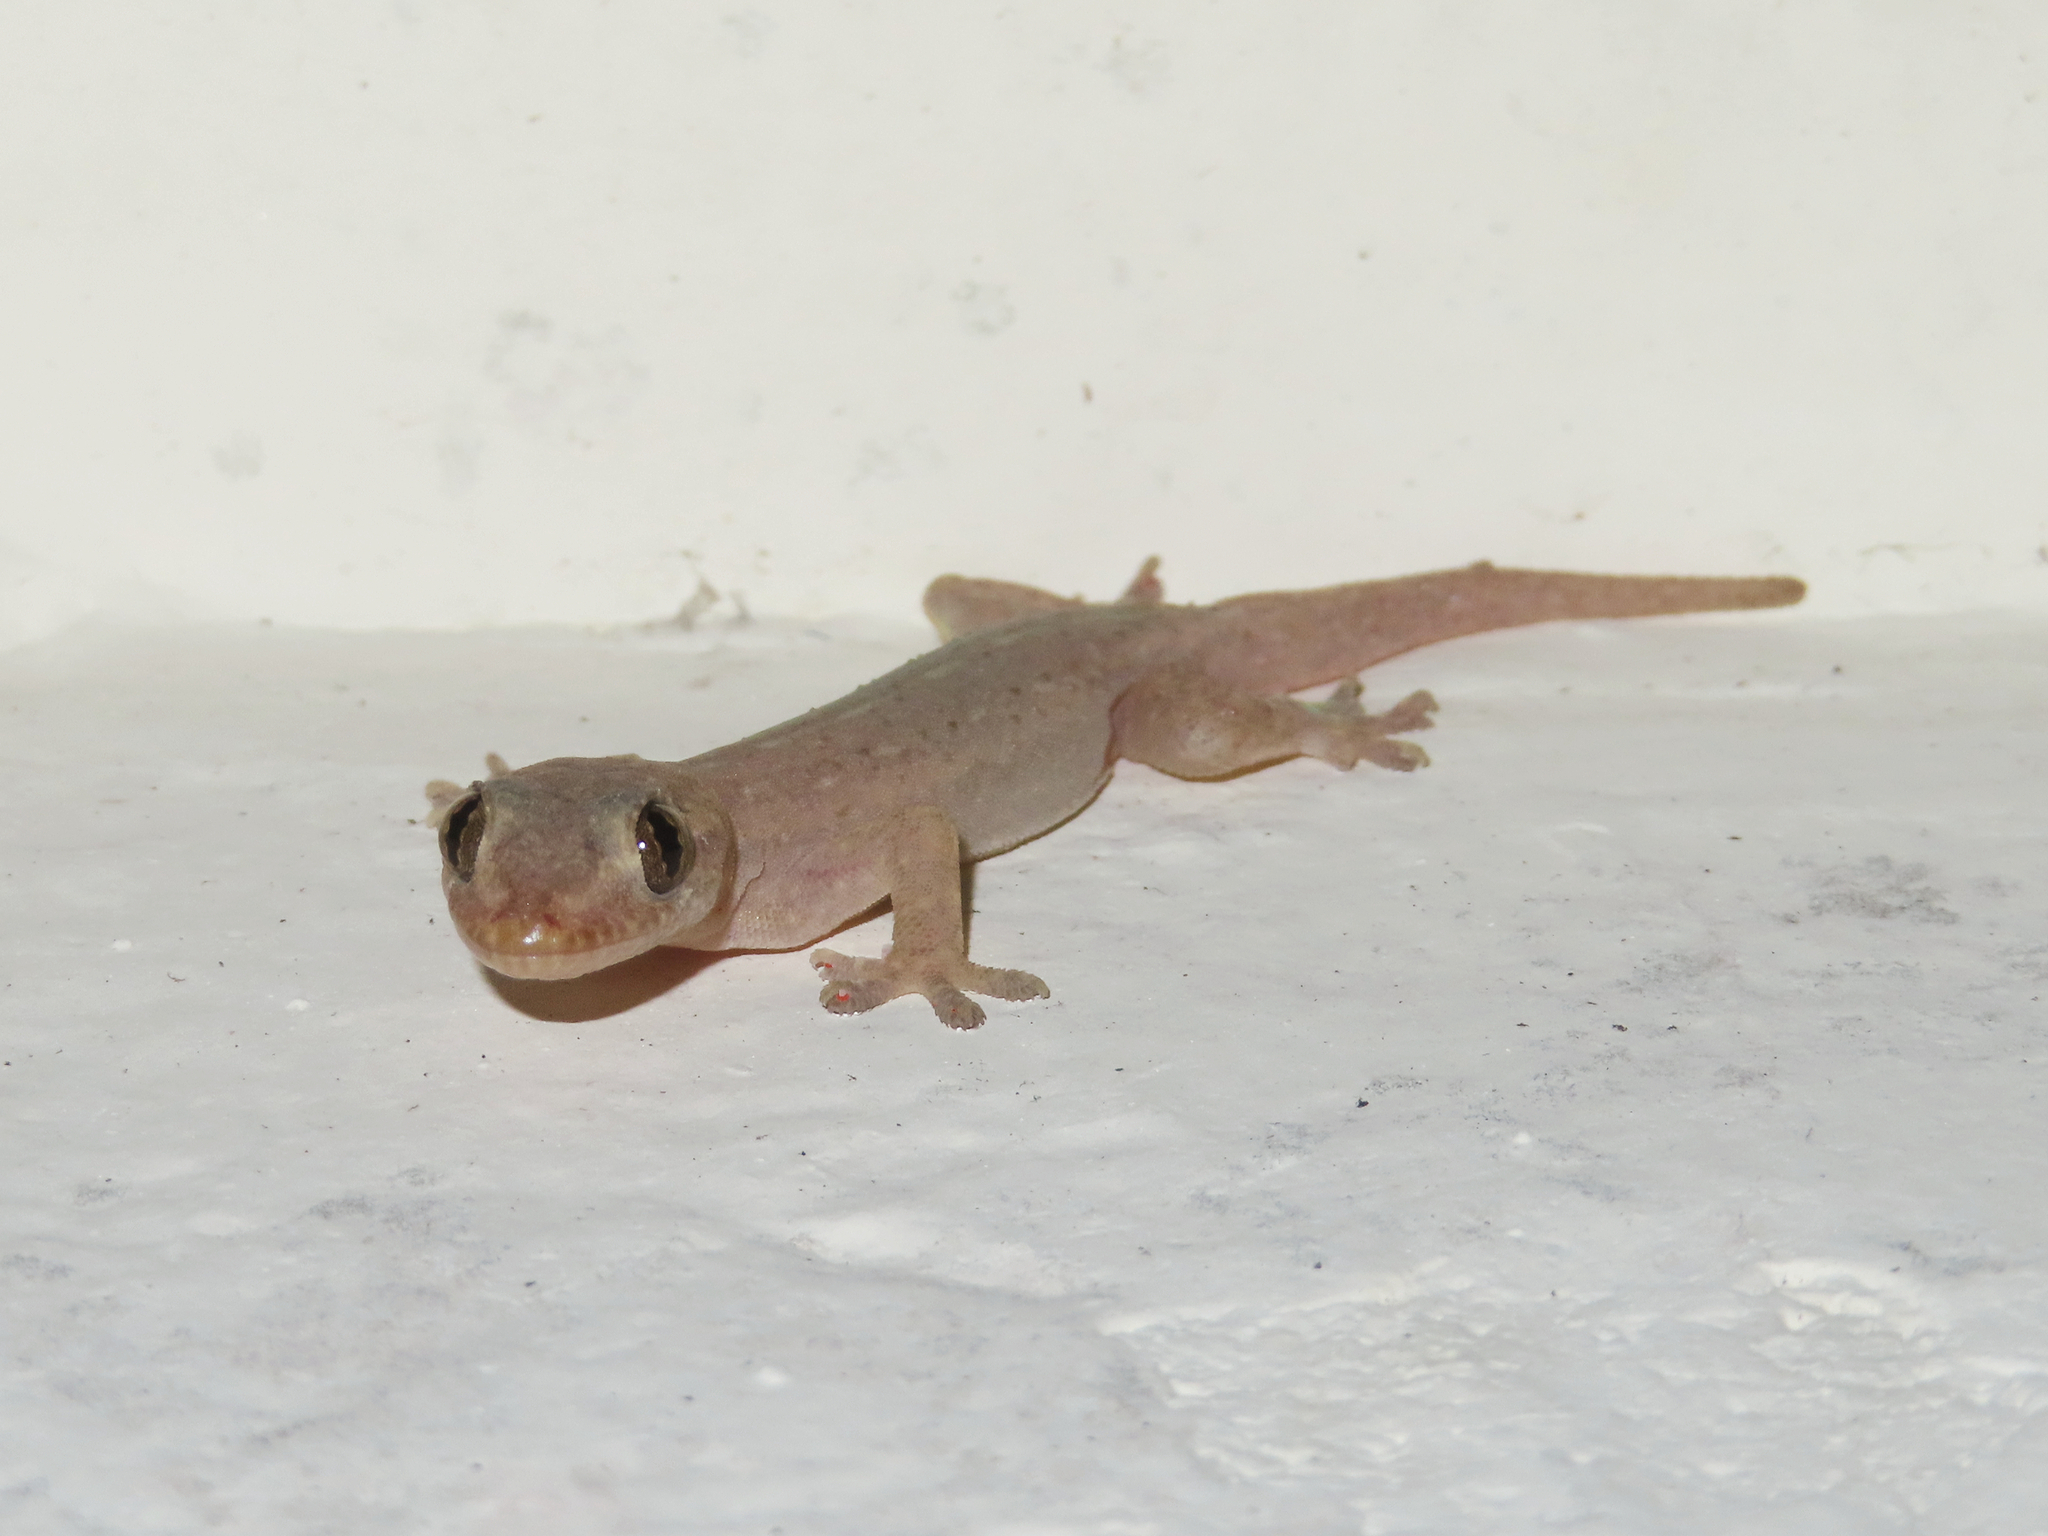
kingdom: Animalia
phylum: Chordata
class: Squamata
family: Gekkonidae
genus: Hemidactylus
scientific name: Hemidactylus frenatus
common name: Common house gecko
